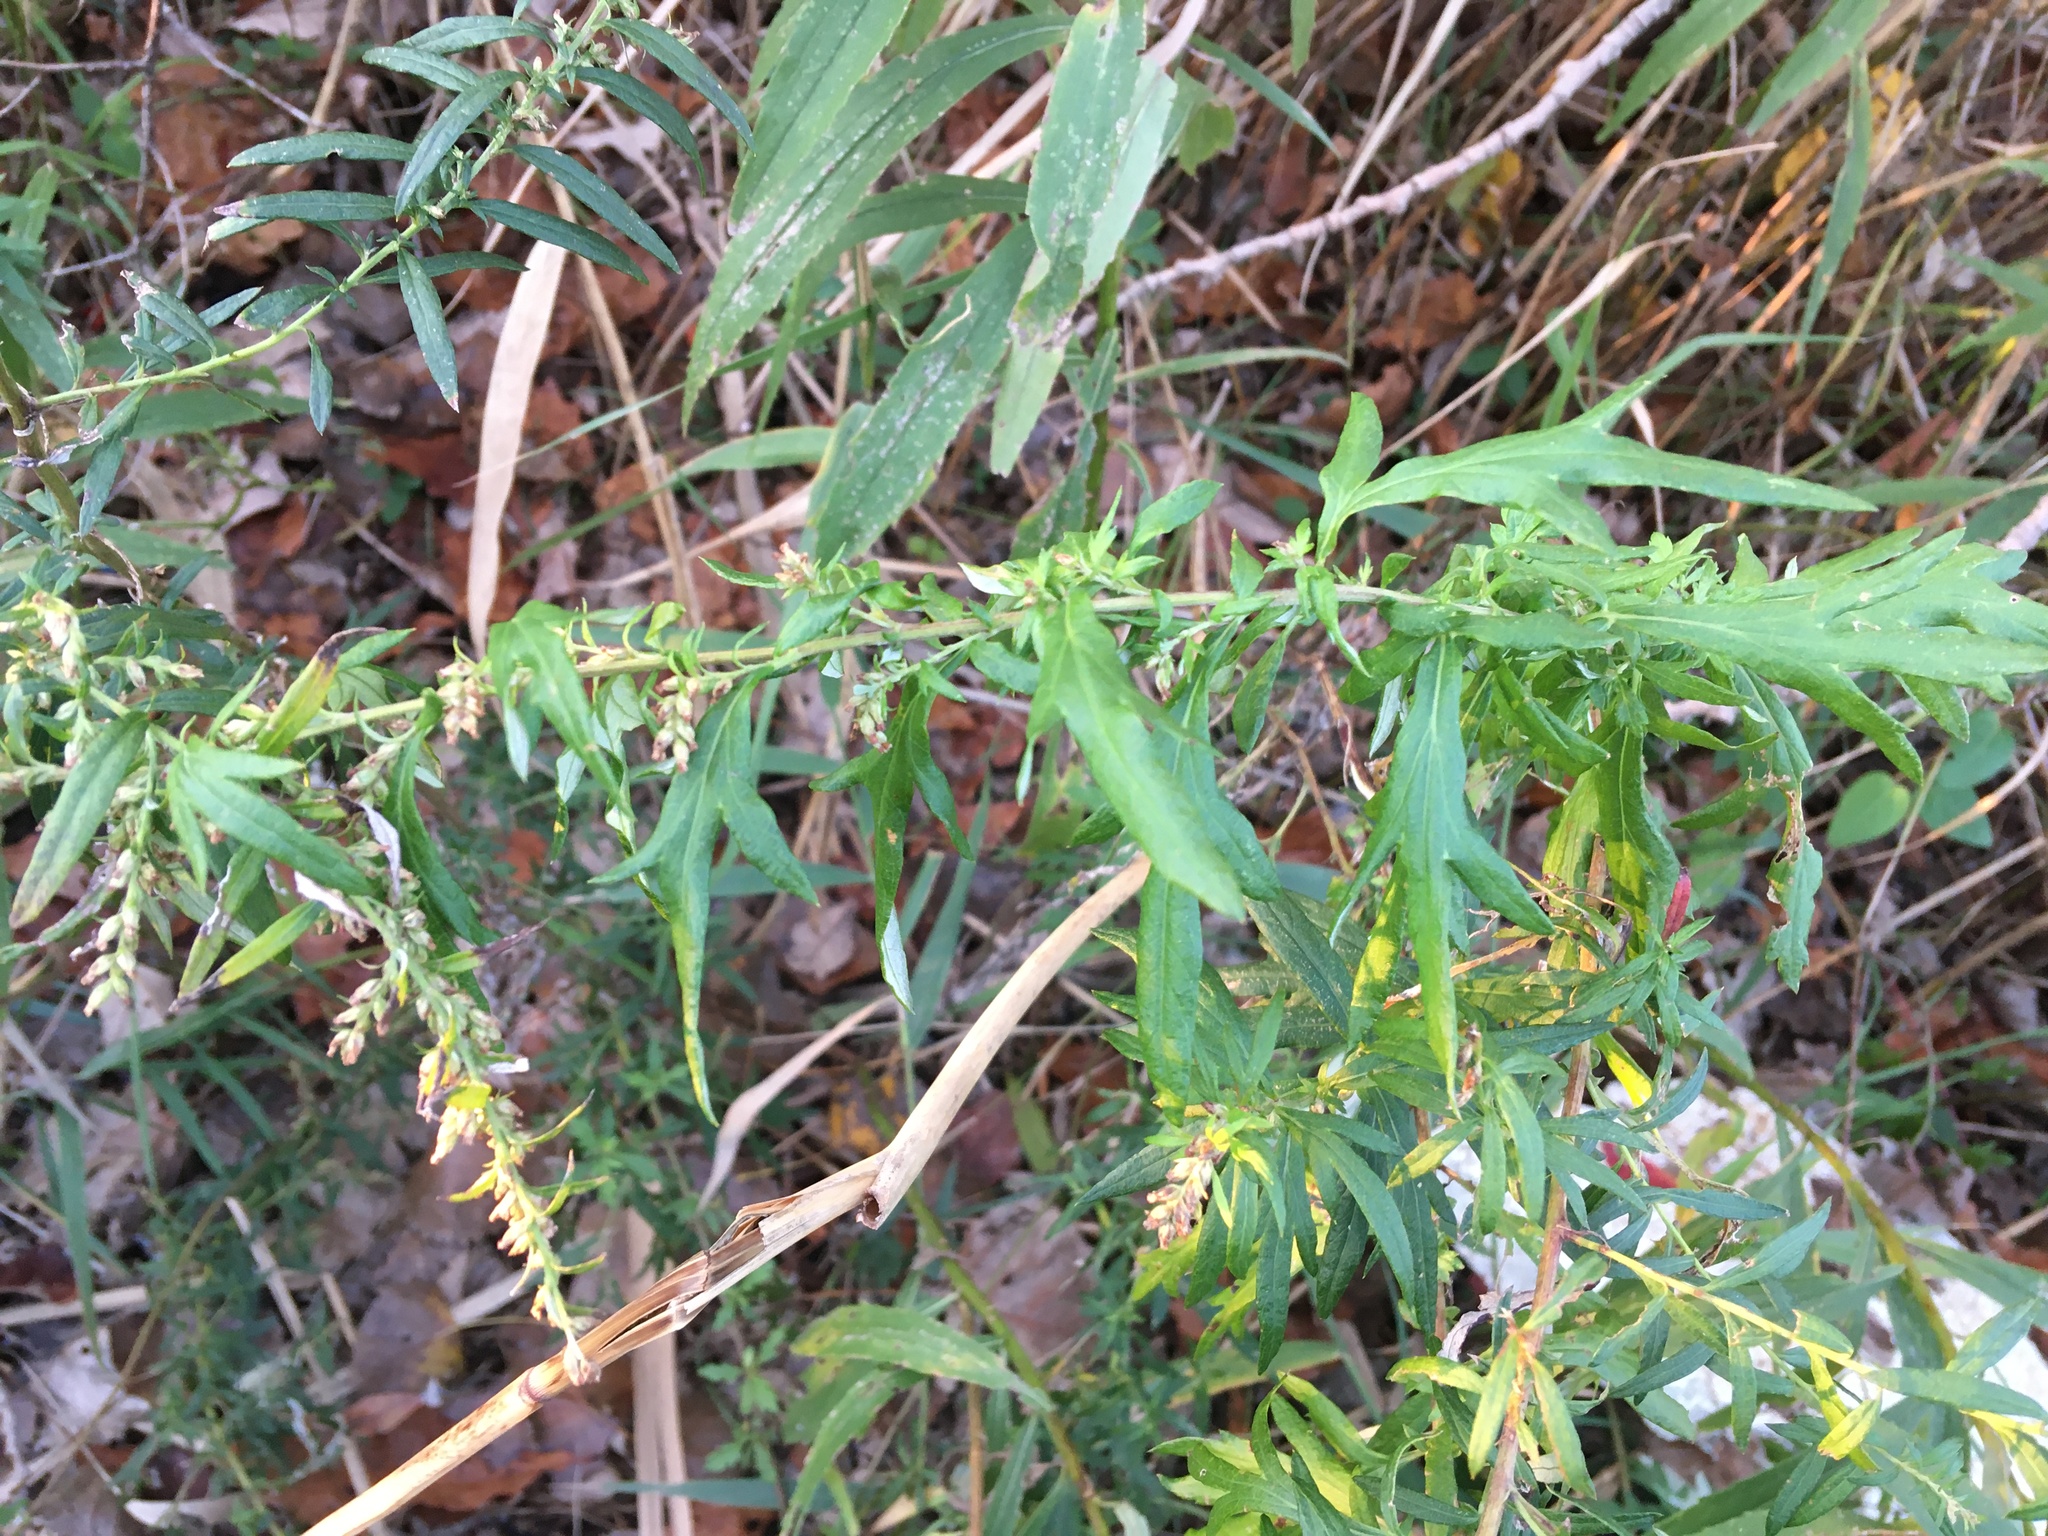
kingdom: Plantae
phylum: Tracheophyta
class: Magnoliopsida
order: Asterales
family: Asteraceae
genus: Artemisia
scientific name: Artemisia vulgaris
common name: Mugwort
